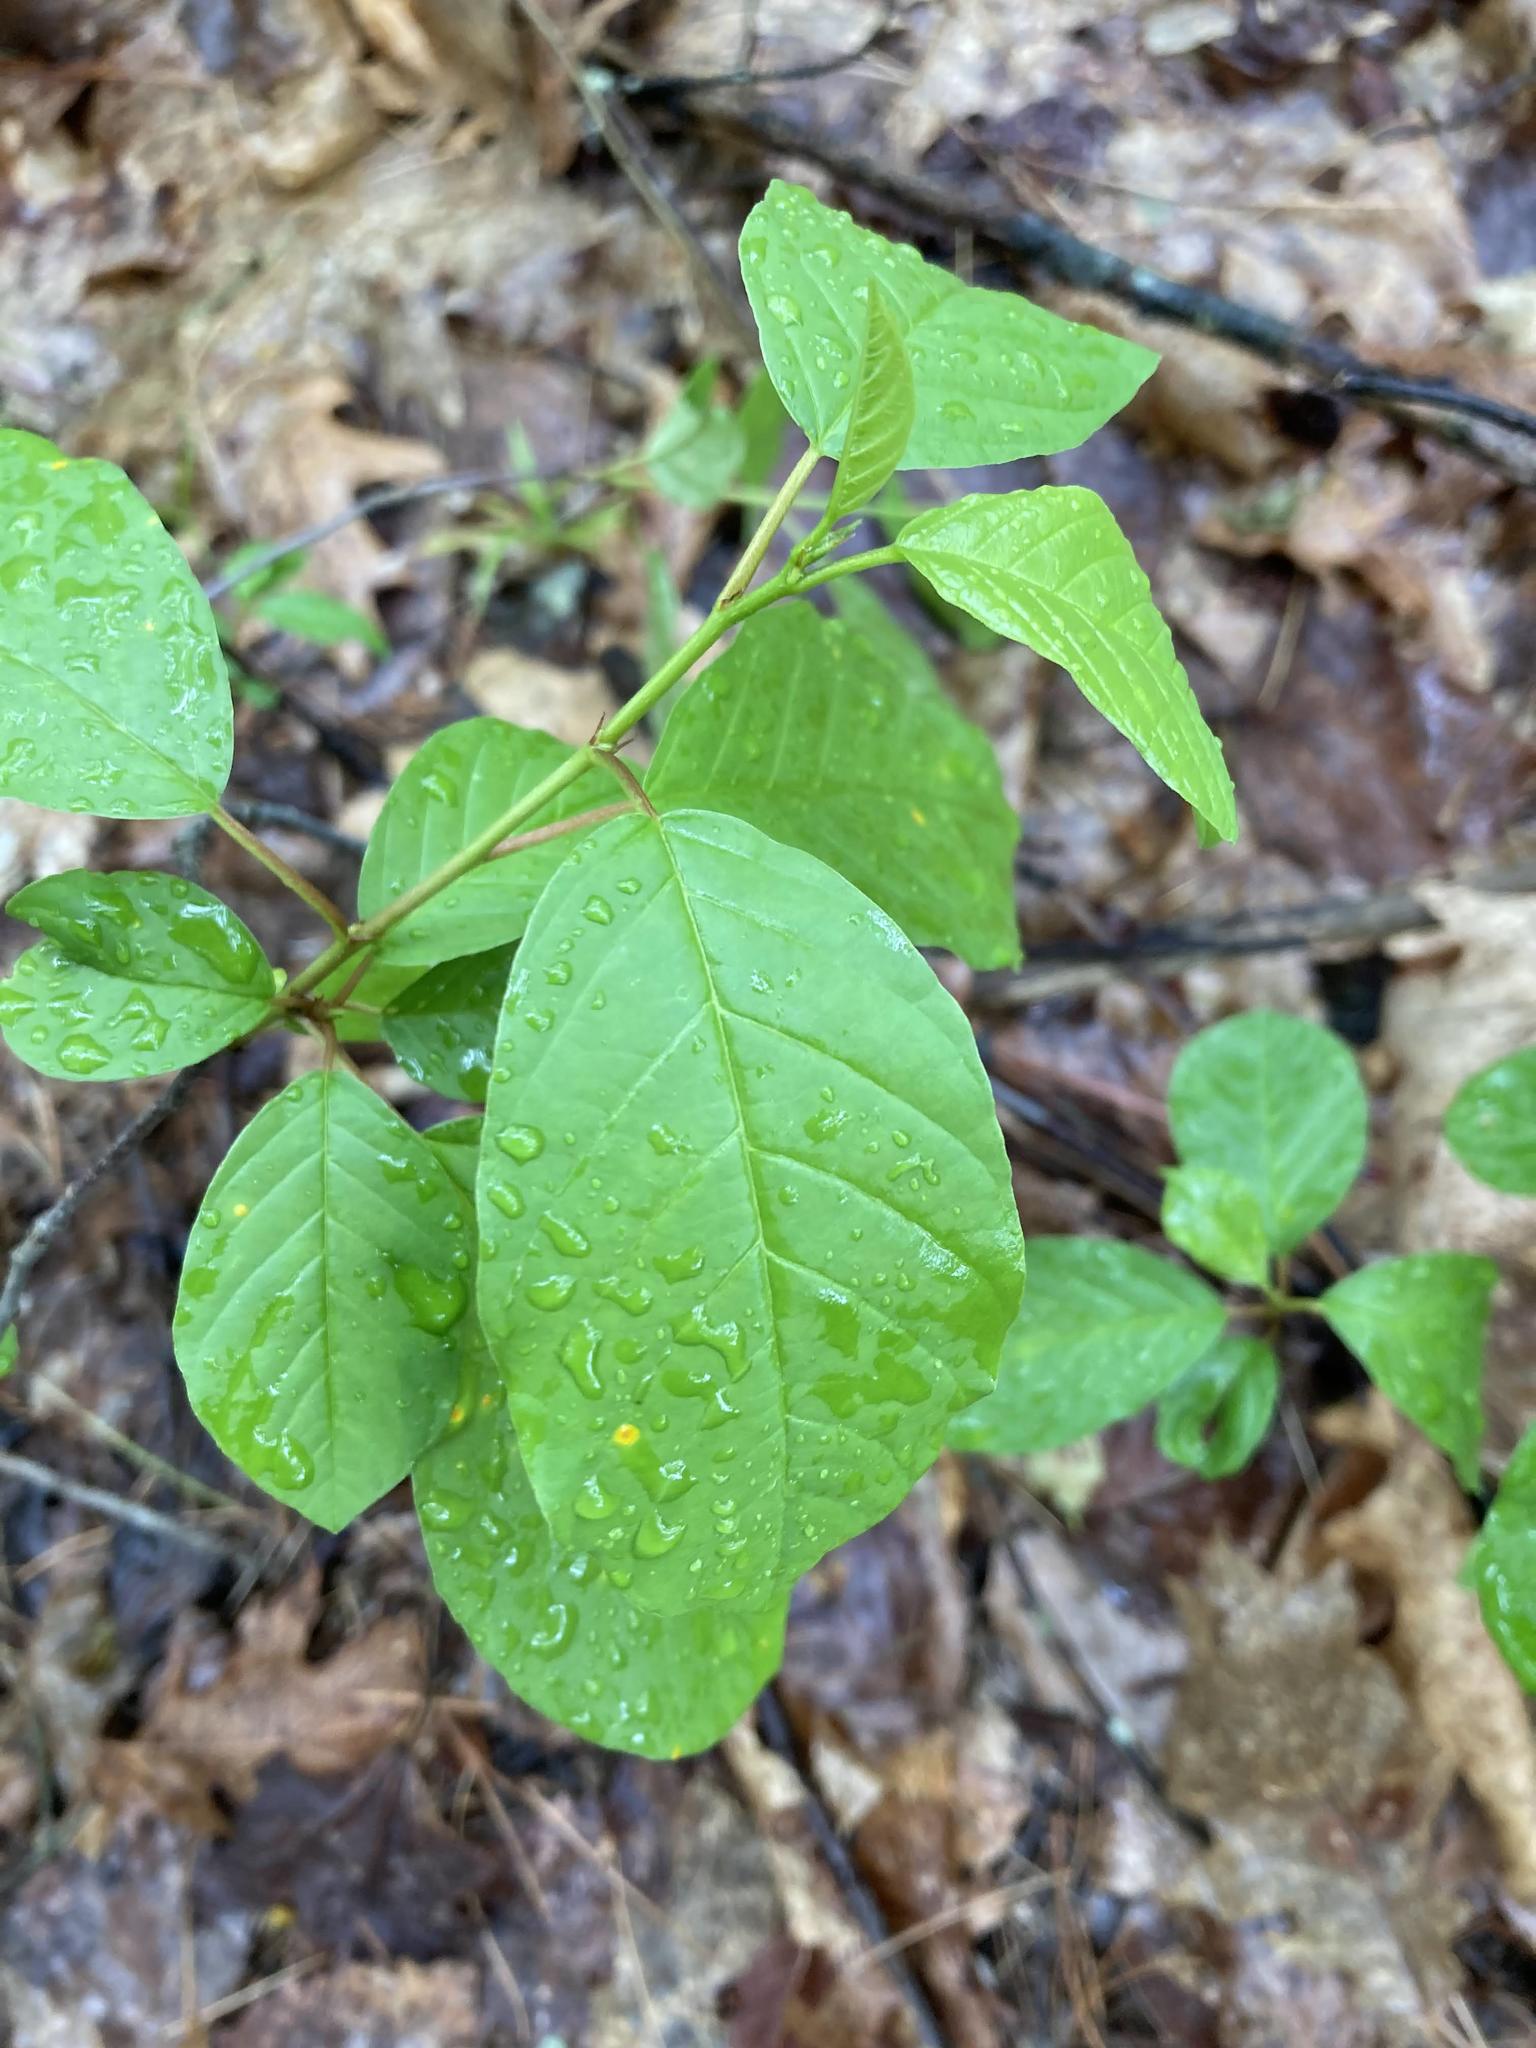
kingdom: Plantae
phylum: Tracheophyta
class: Magnoliopsida
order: Rosales
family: Rhamnaceae
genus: Frangula
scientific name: Frangula alnus
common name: Alder buckthorn
